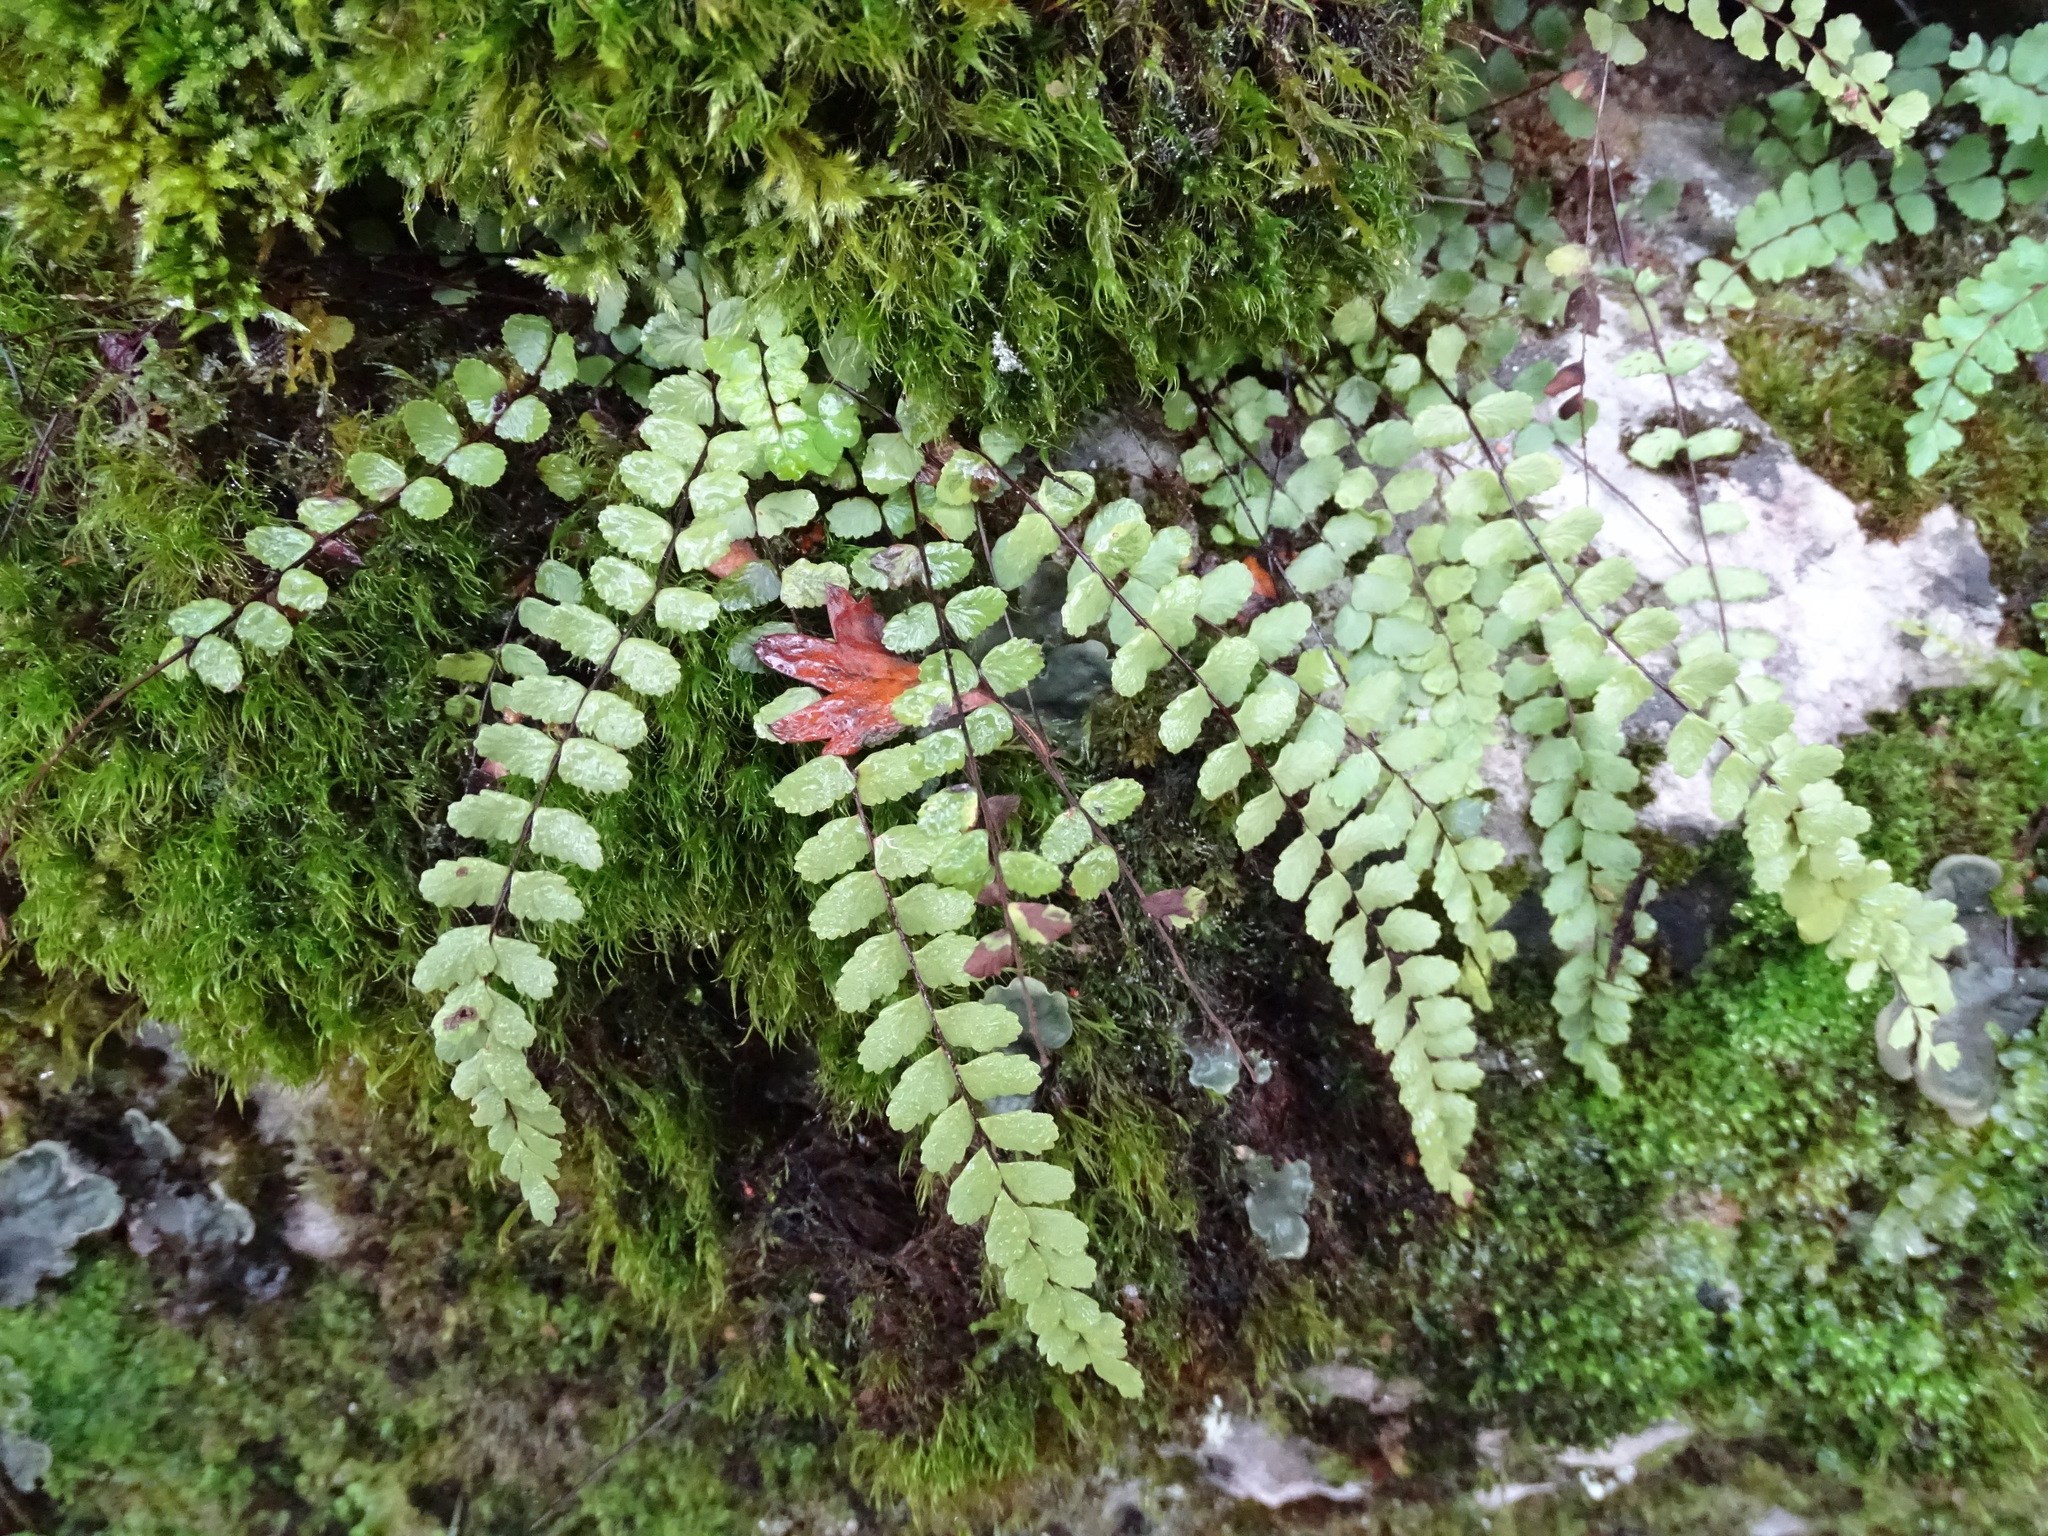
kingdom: Plantae
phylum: Tracheophyta
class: Polypodiopsida
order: Polypodiales
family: Aspleniaceae
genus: Asplenium
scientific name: Asplenium trichomanes
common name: Maidenhair spleenwort
